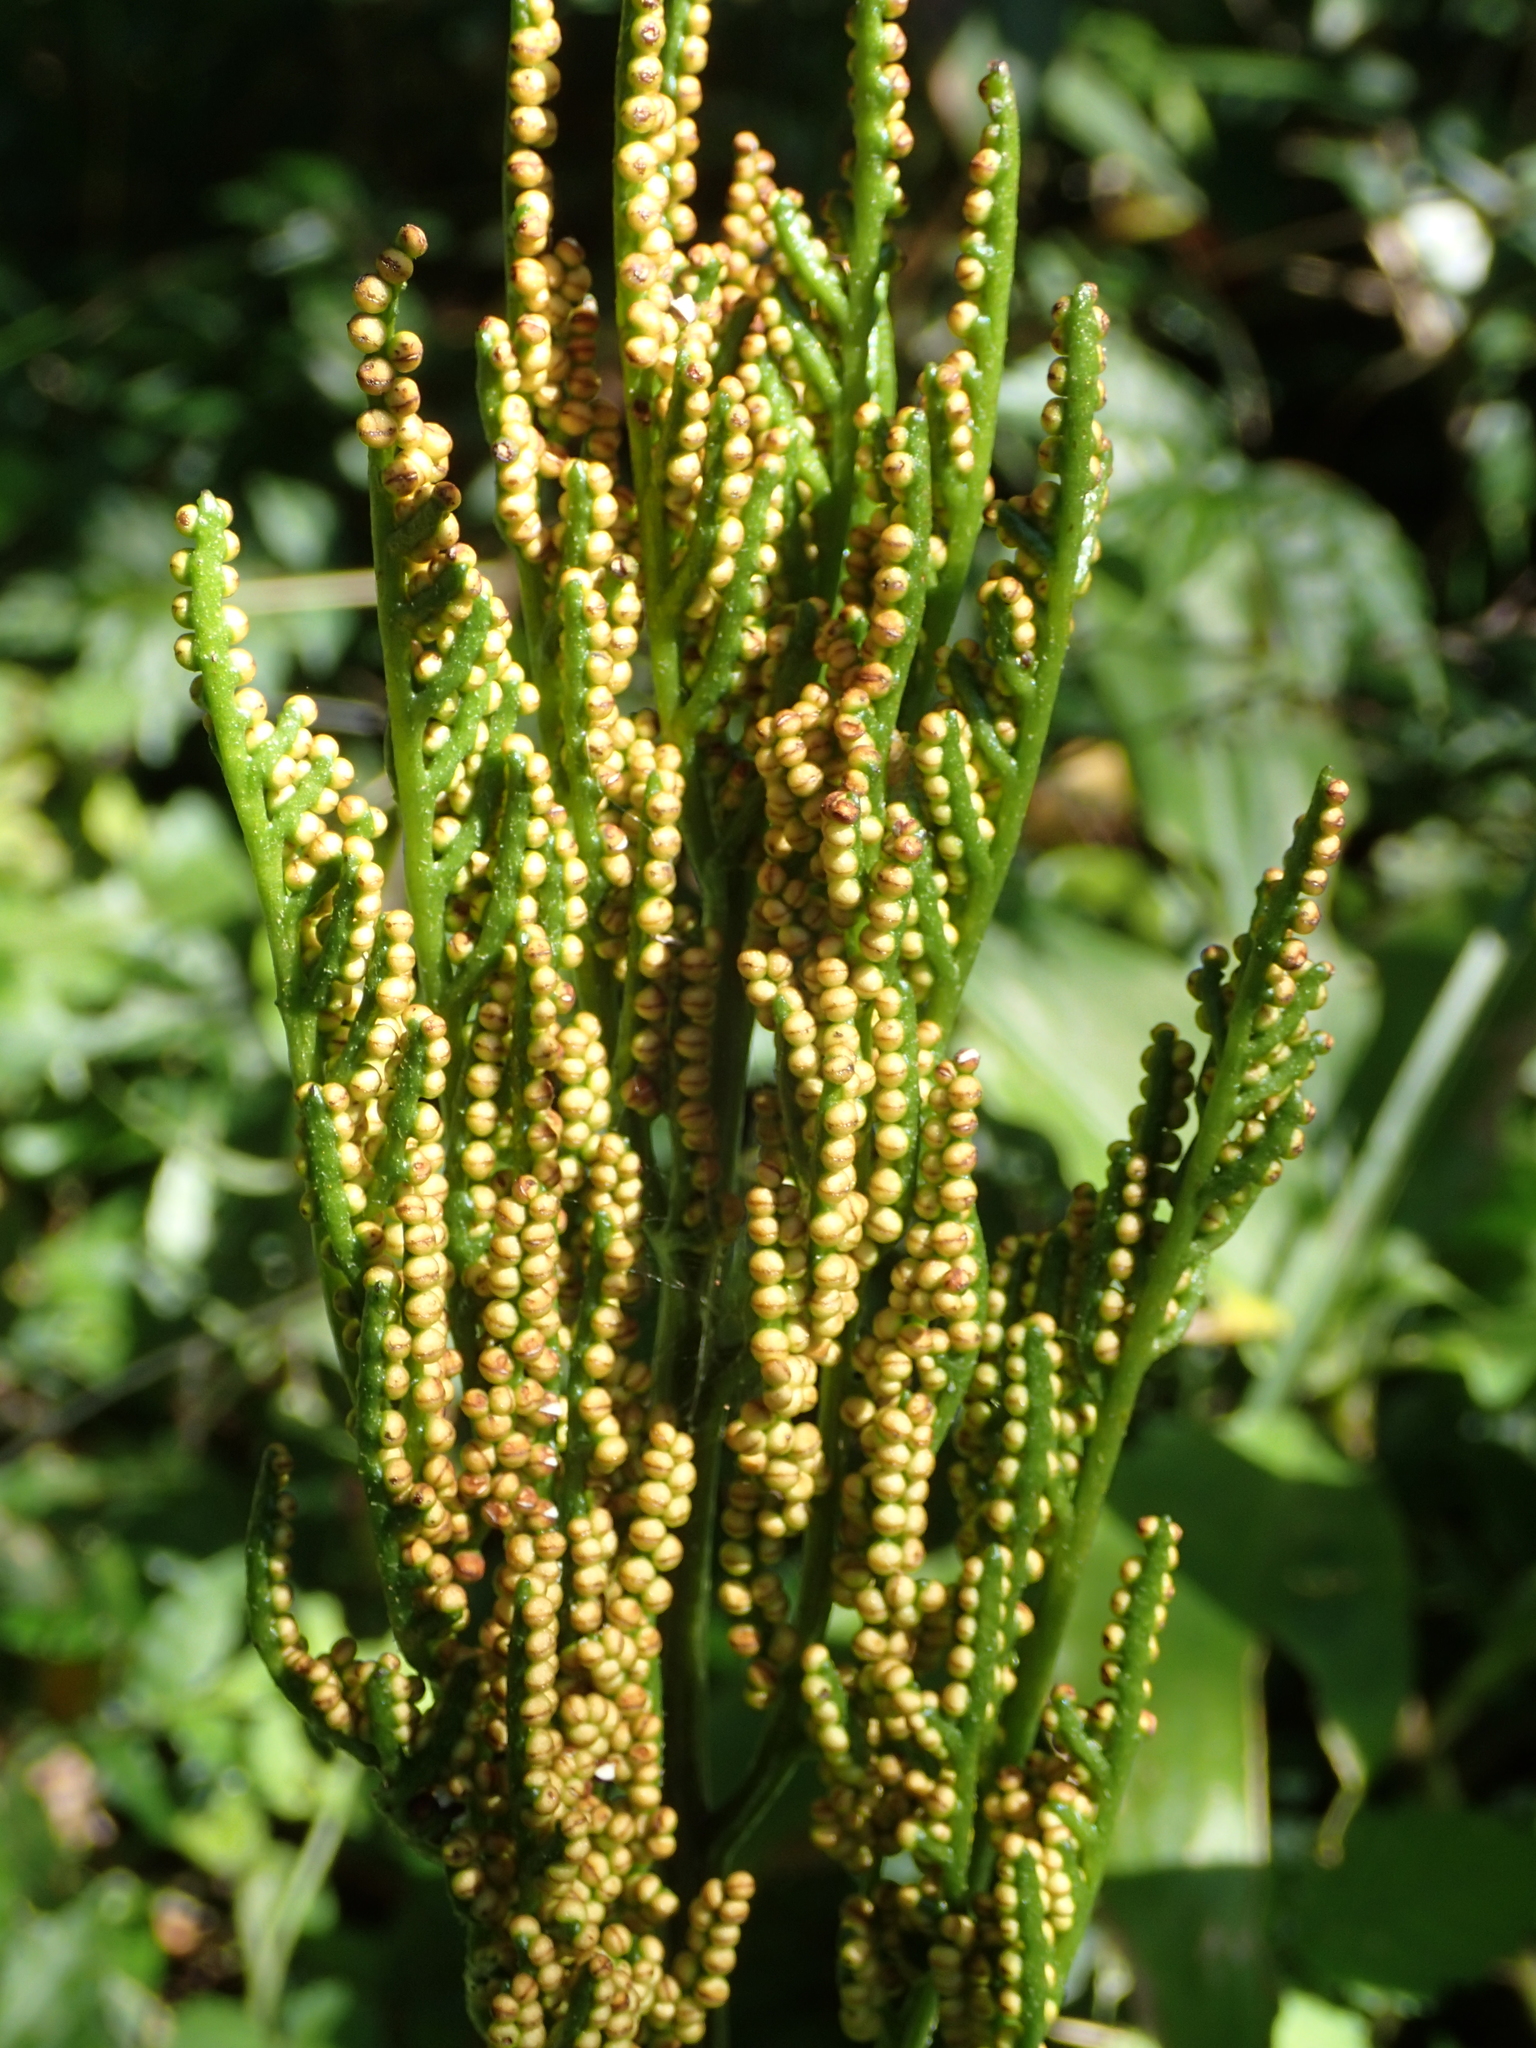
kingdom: Plantae
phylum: Tracheophyta
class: Polypodiopsida
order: Ophioglossales
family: Ophioglossaceae
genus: Sceptridium
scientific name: Sceptridium formosanum
